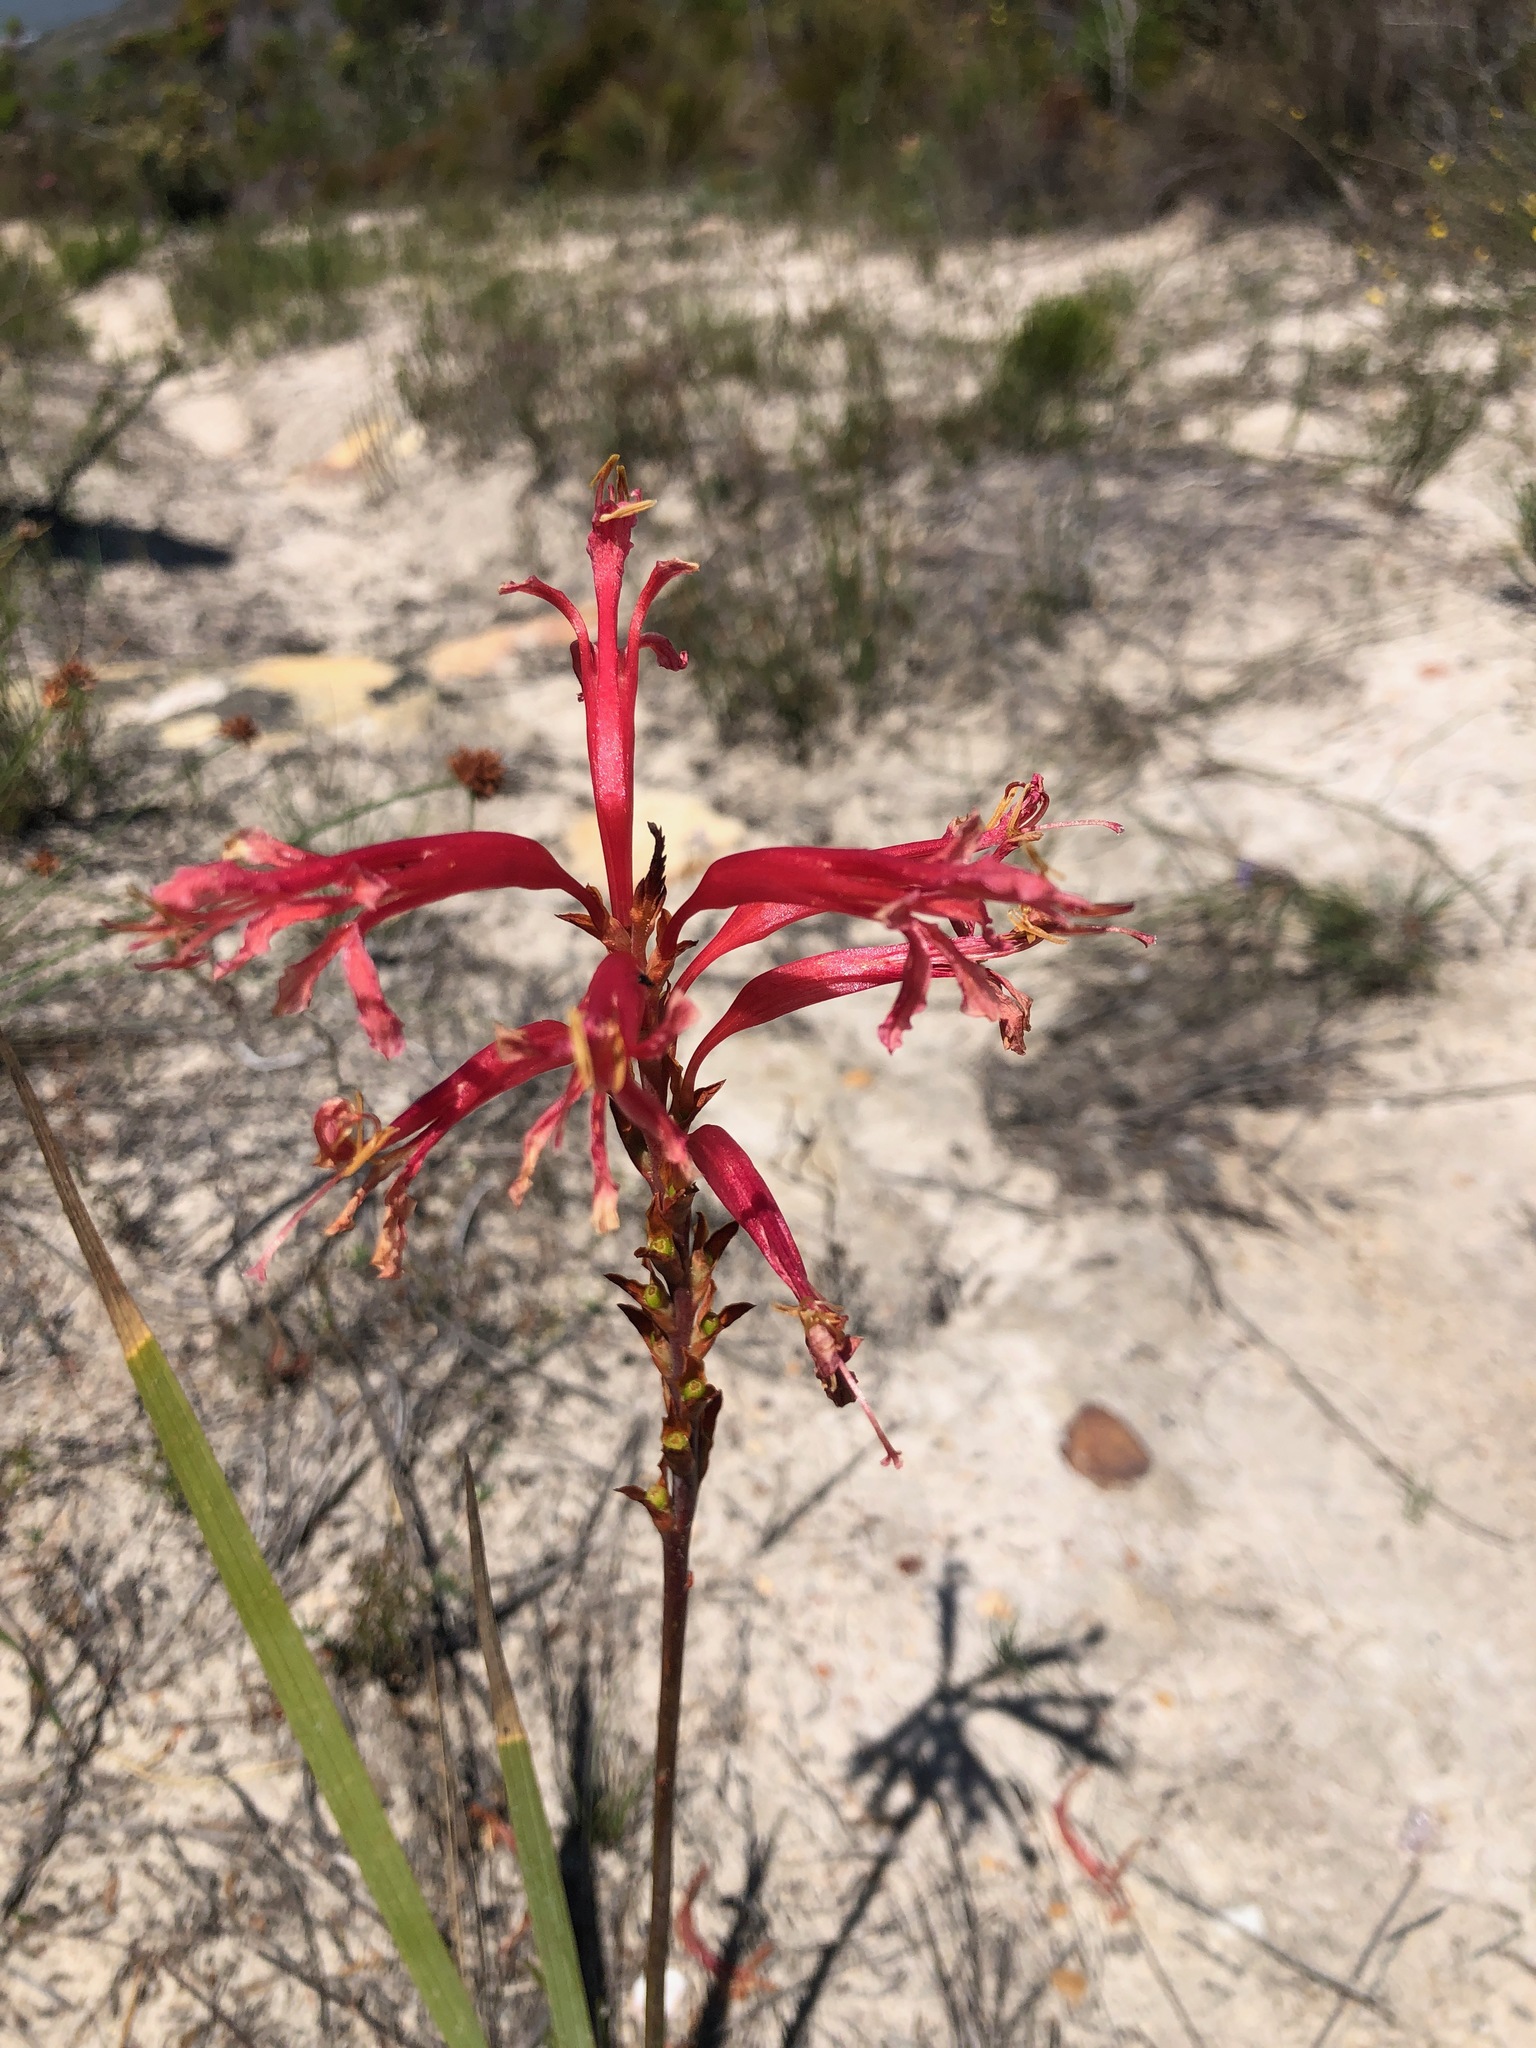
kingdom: Plantae
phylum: Tracheophyta
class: Liliopsida
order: Asparagales
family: Iridaceae
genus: Tritoniopsis
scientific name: Tritoniopsis antholyza
